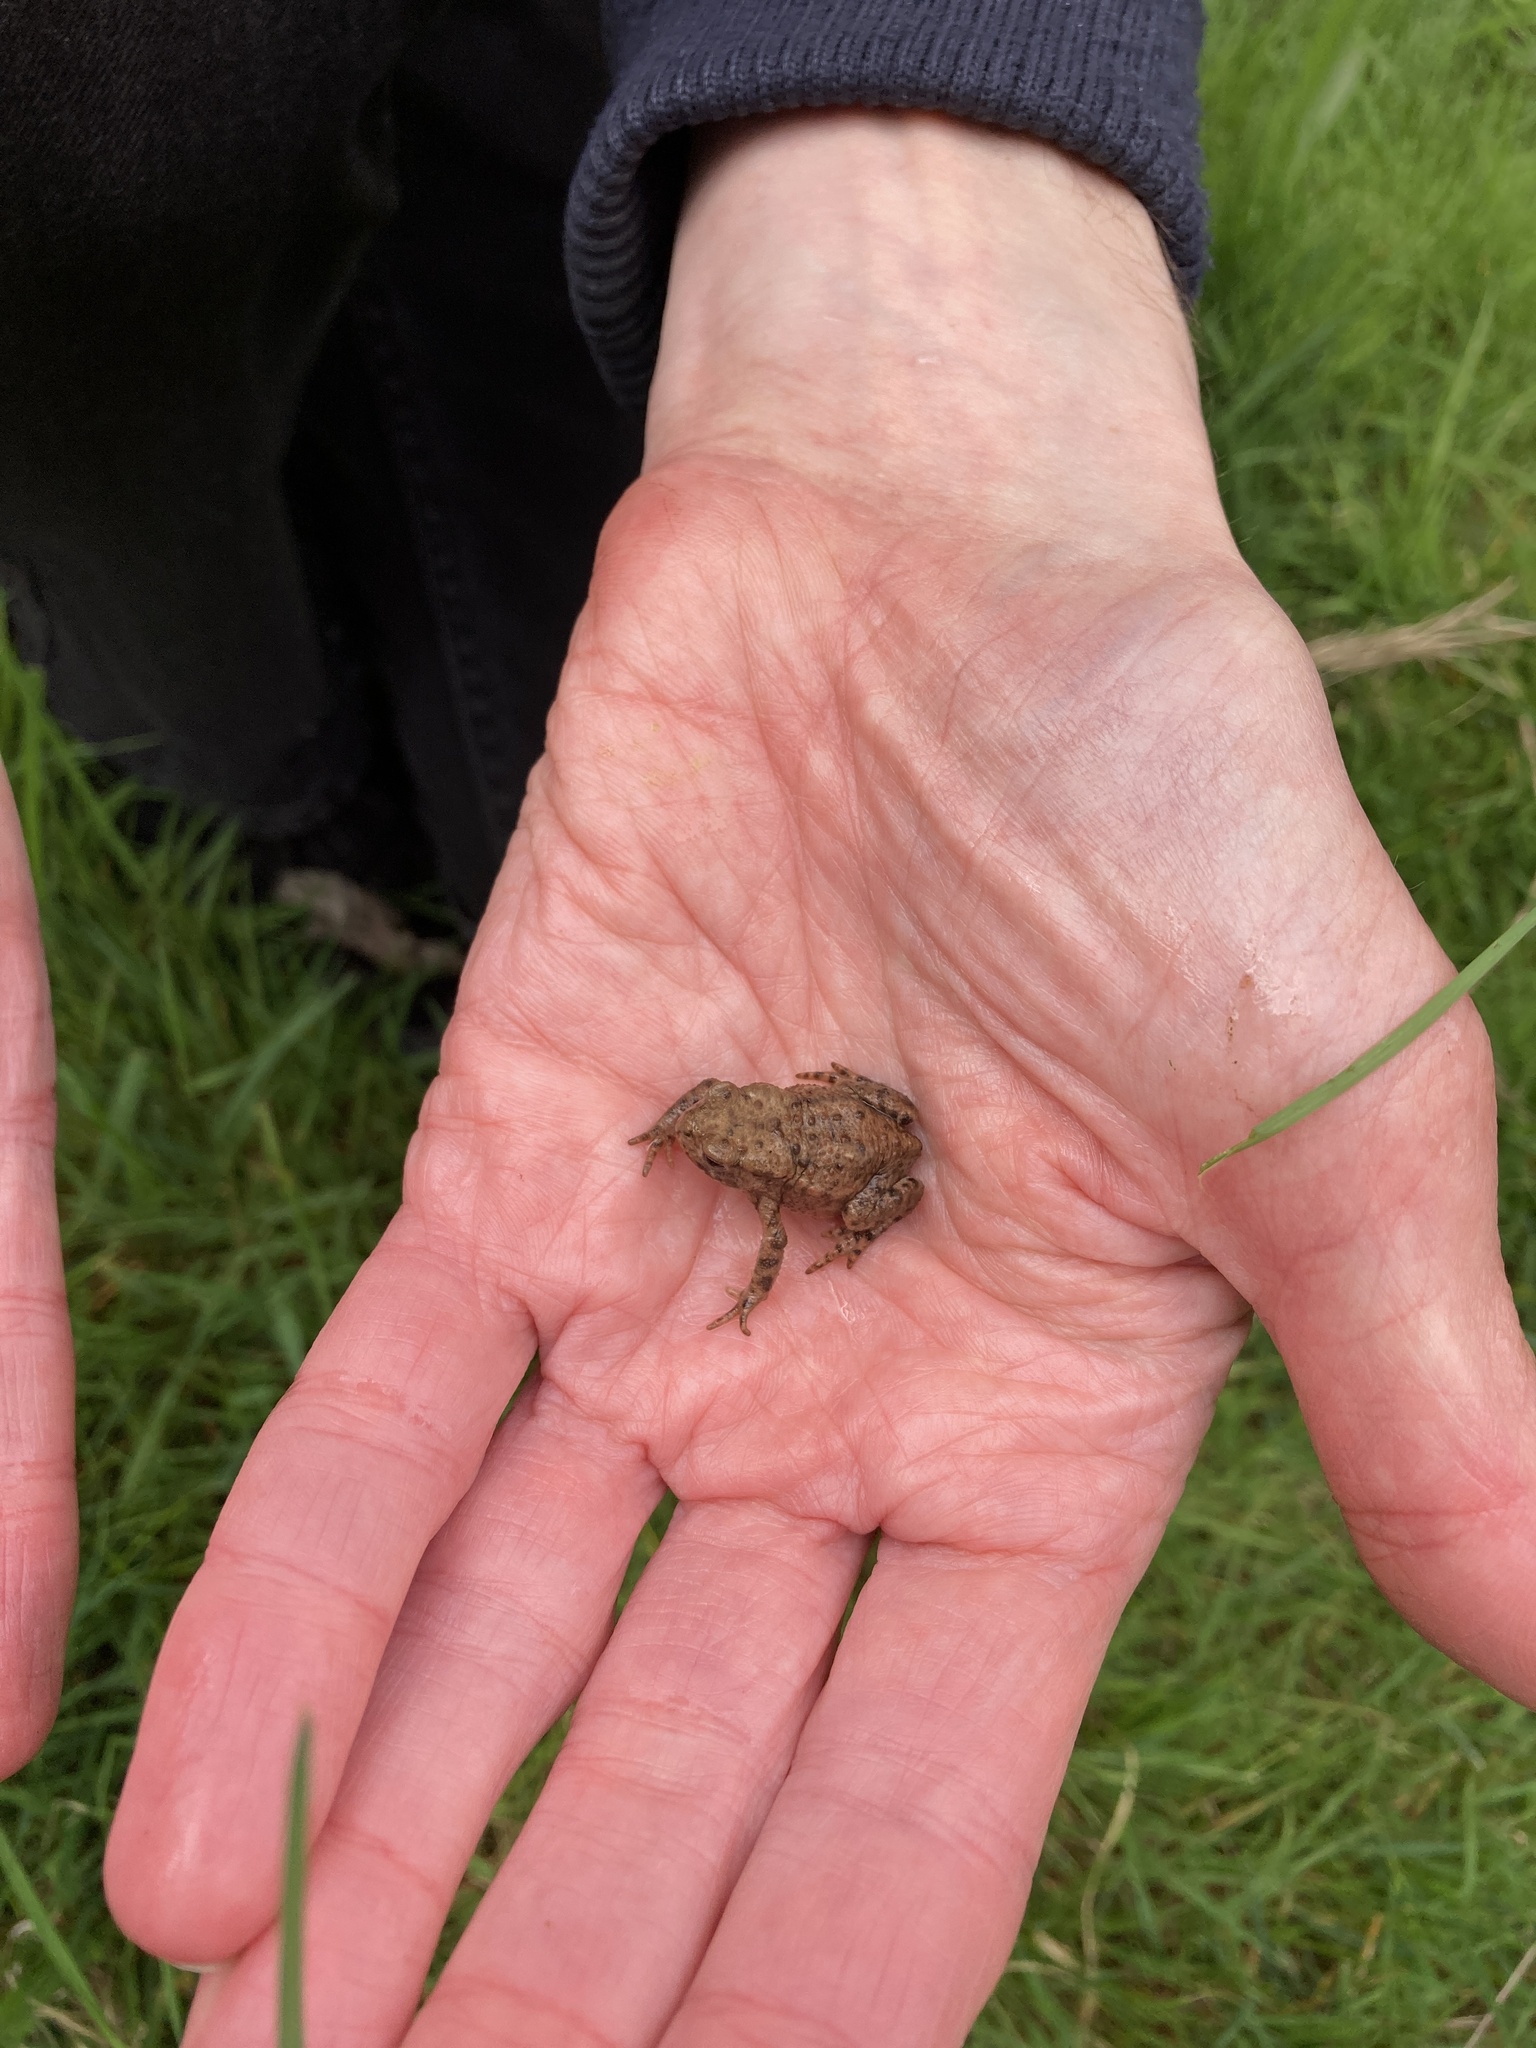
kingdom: Animalia
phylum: Chordata
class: Amphibia
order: Anura
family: Bufonidae
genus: Bufo
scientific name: Bufo bufo
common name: Common toad
